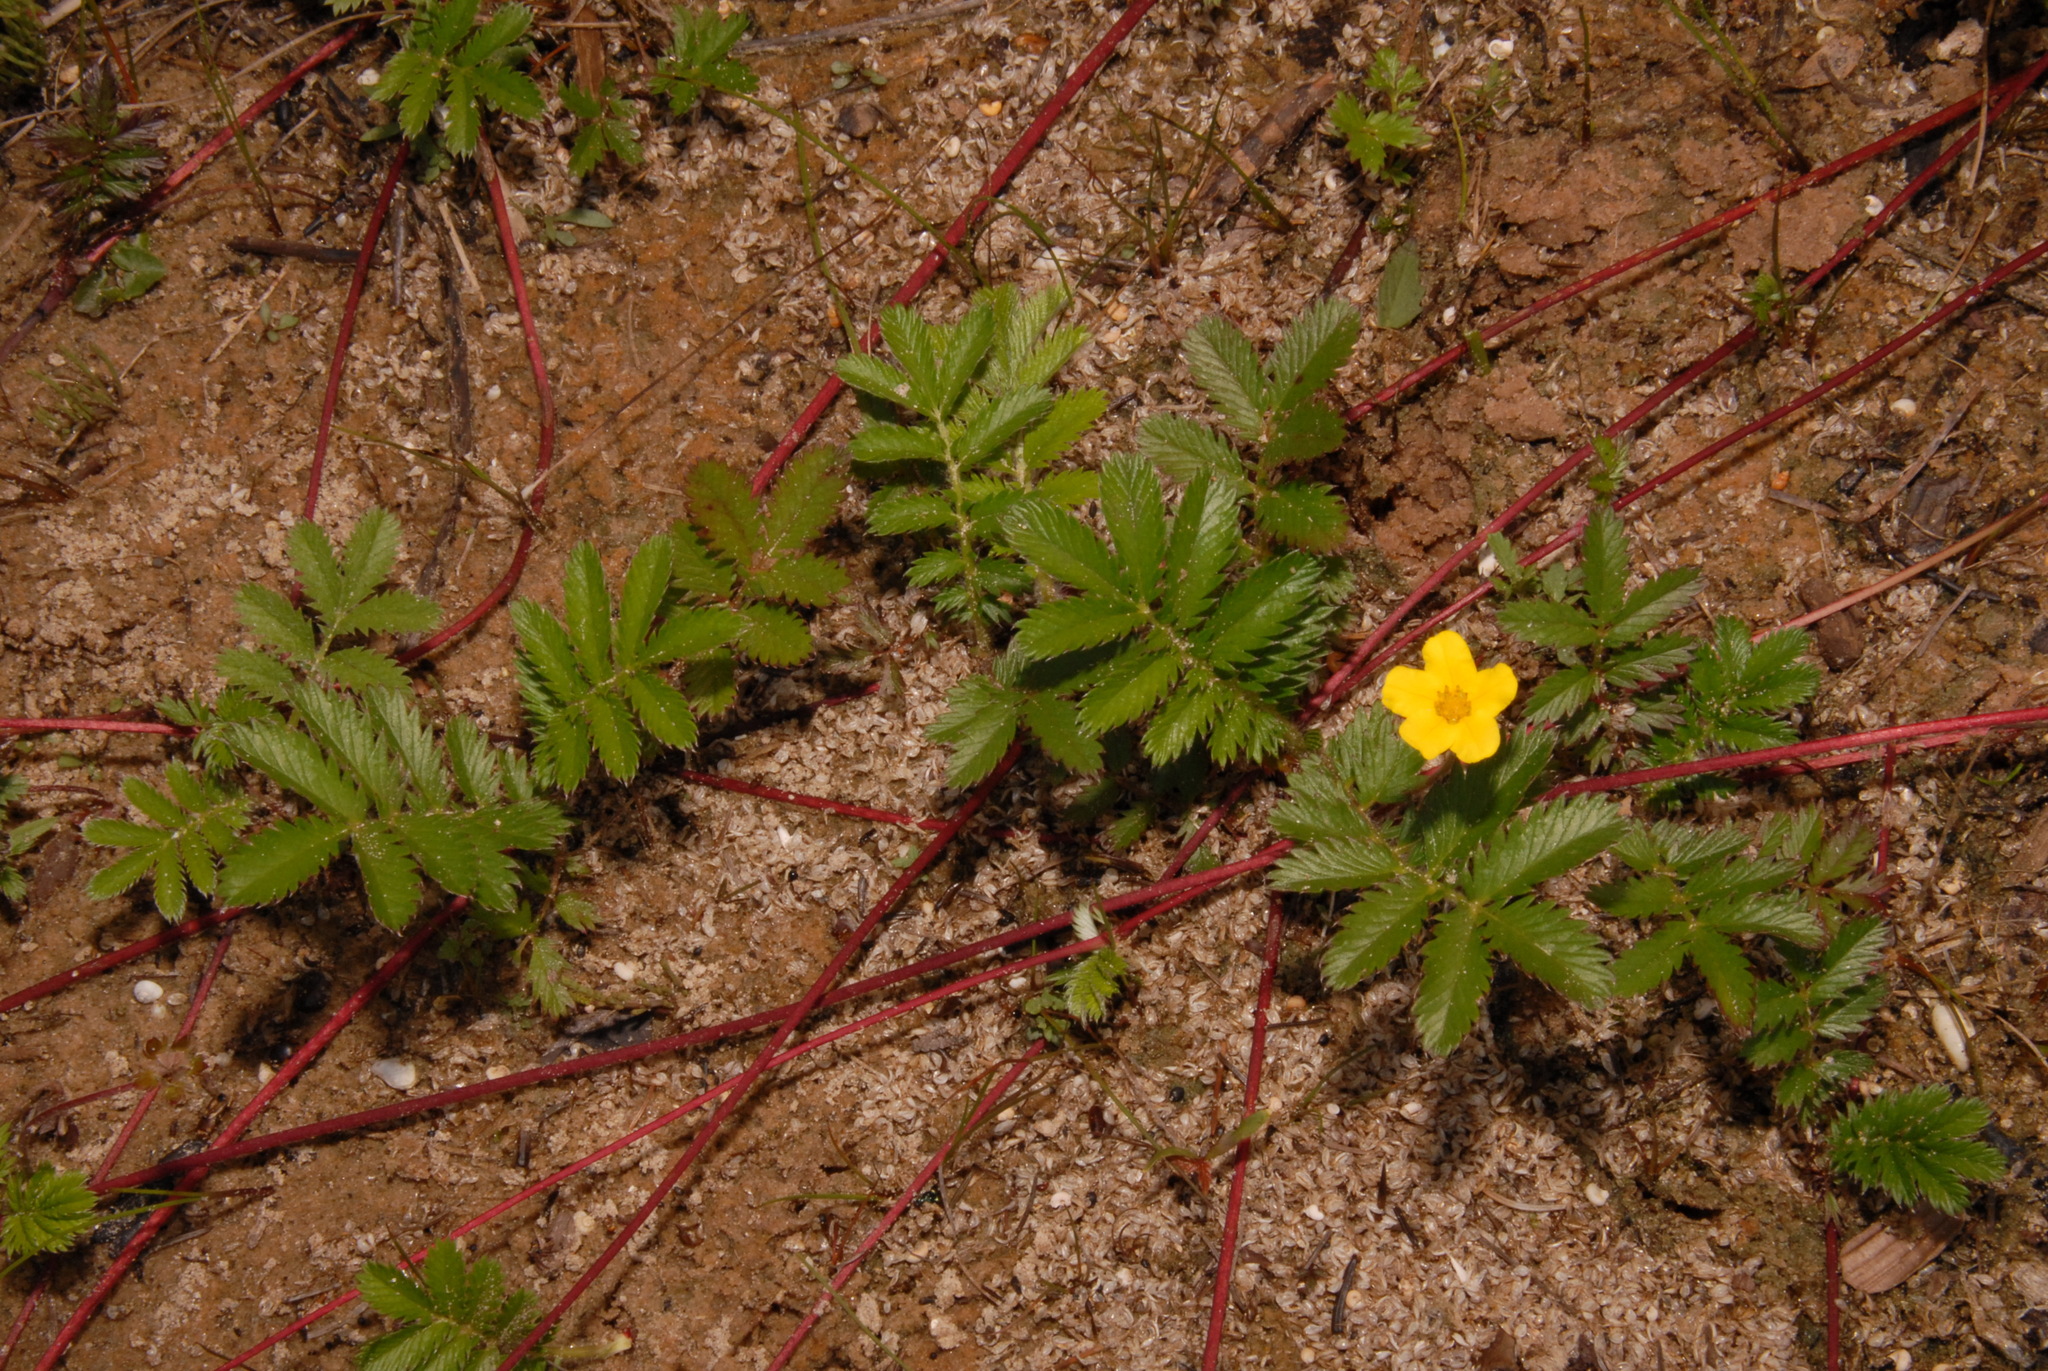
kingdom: Plantae
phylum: Tracheophyta
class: Magnoliopsida
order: Rosales
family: Rosaceae
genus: Argentina
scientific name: Argentina anserina
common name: Common silverweed
